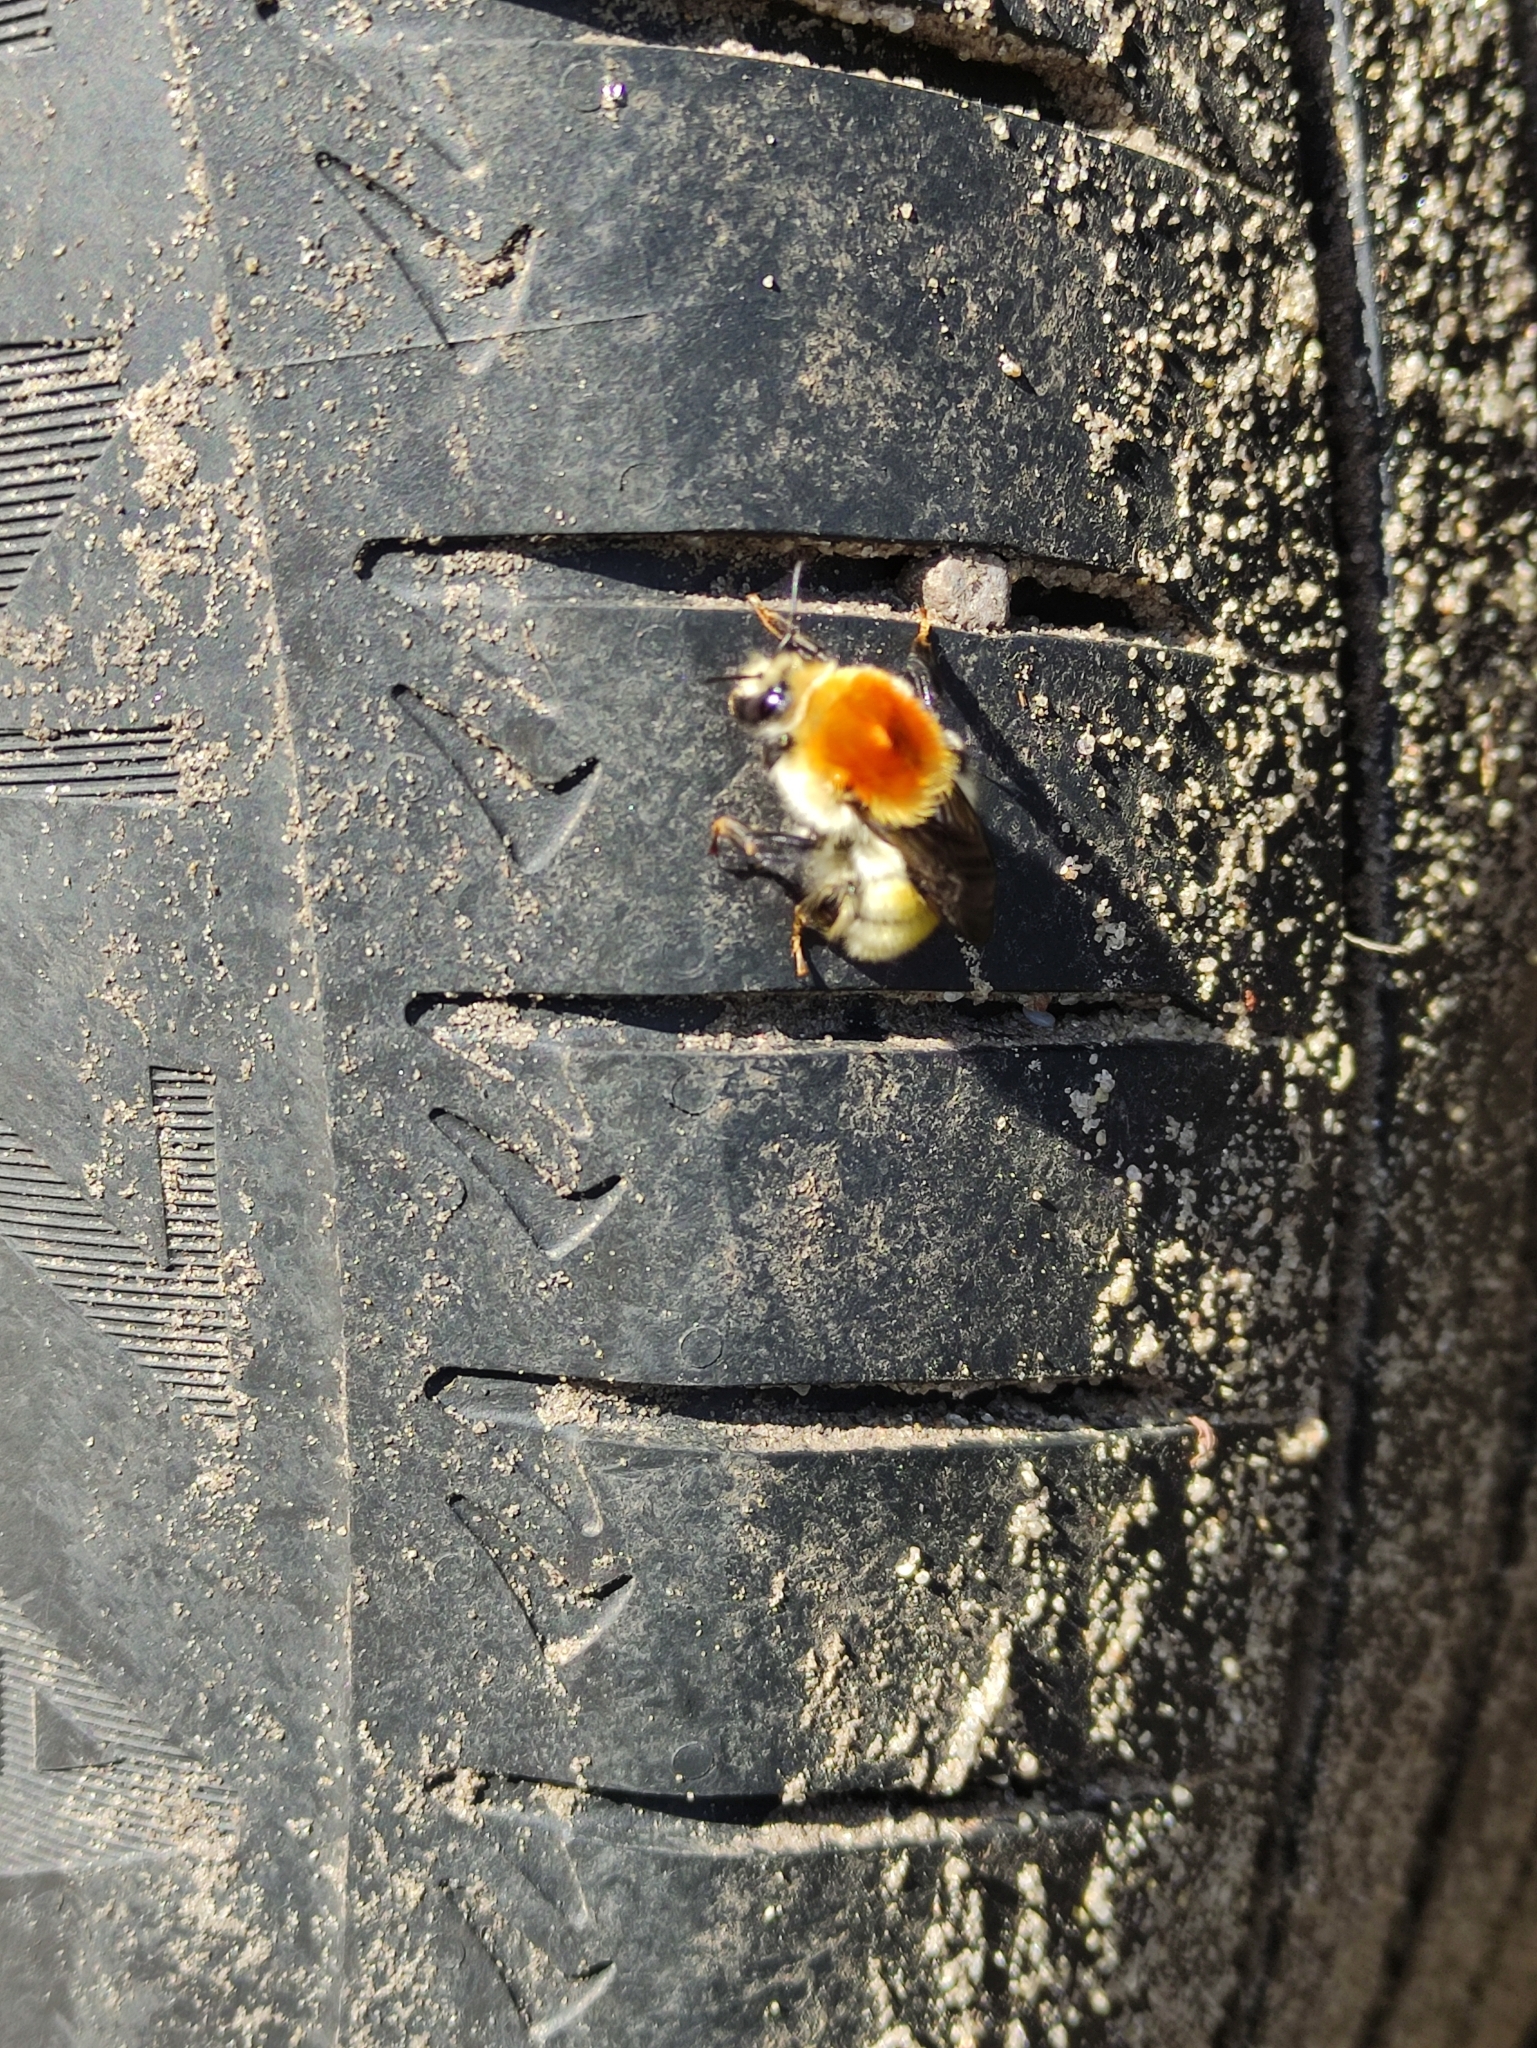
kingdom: Animalia
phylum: Arthropoda
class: Insecta
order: Hymenoptera
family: Apidae
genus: Bombus
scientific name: Bombus muscorum
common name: Moss carder-bee
